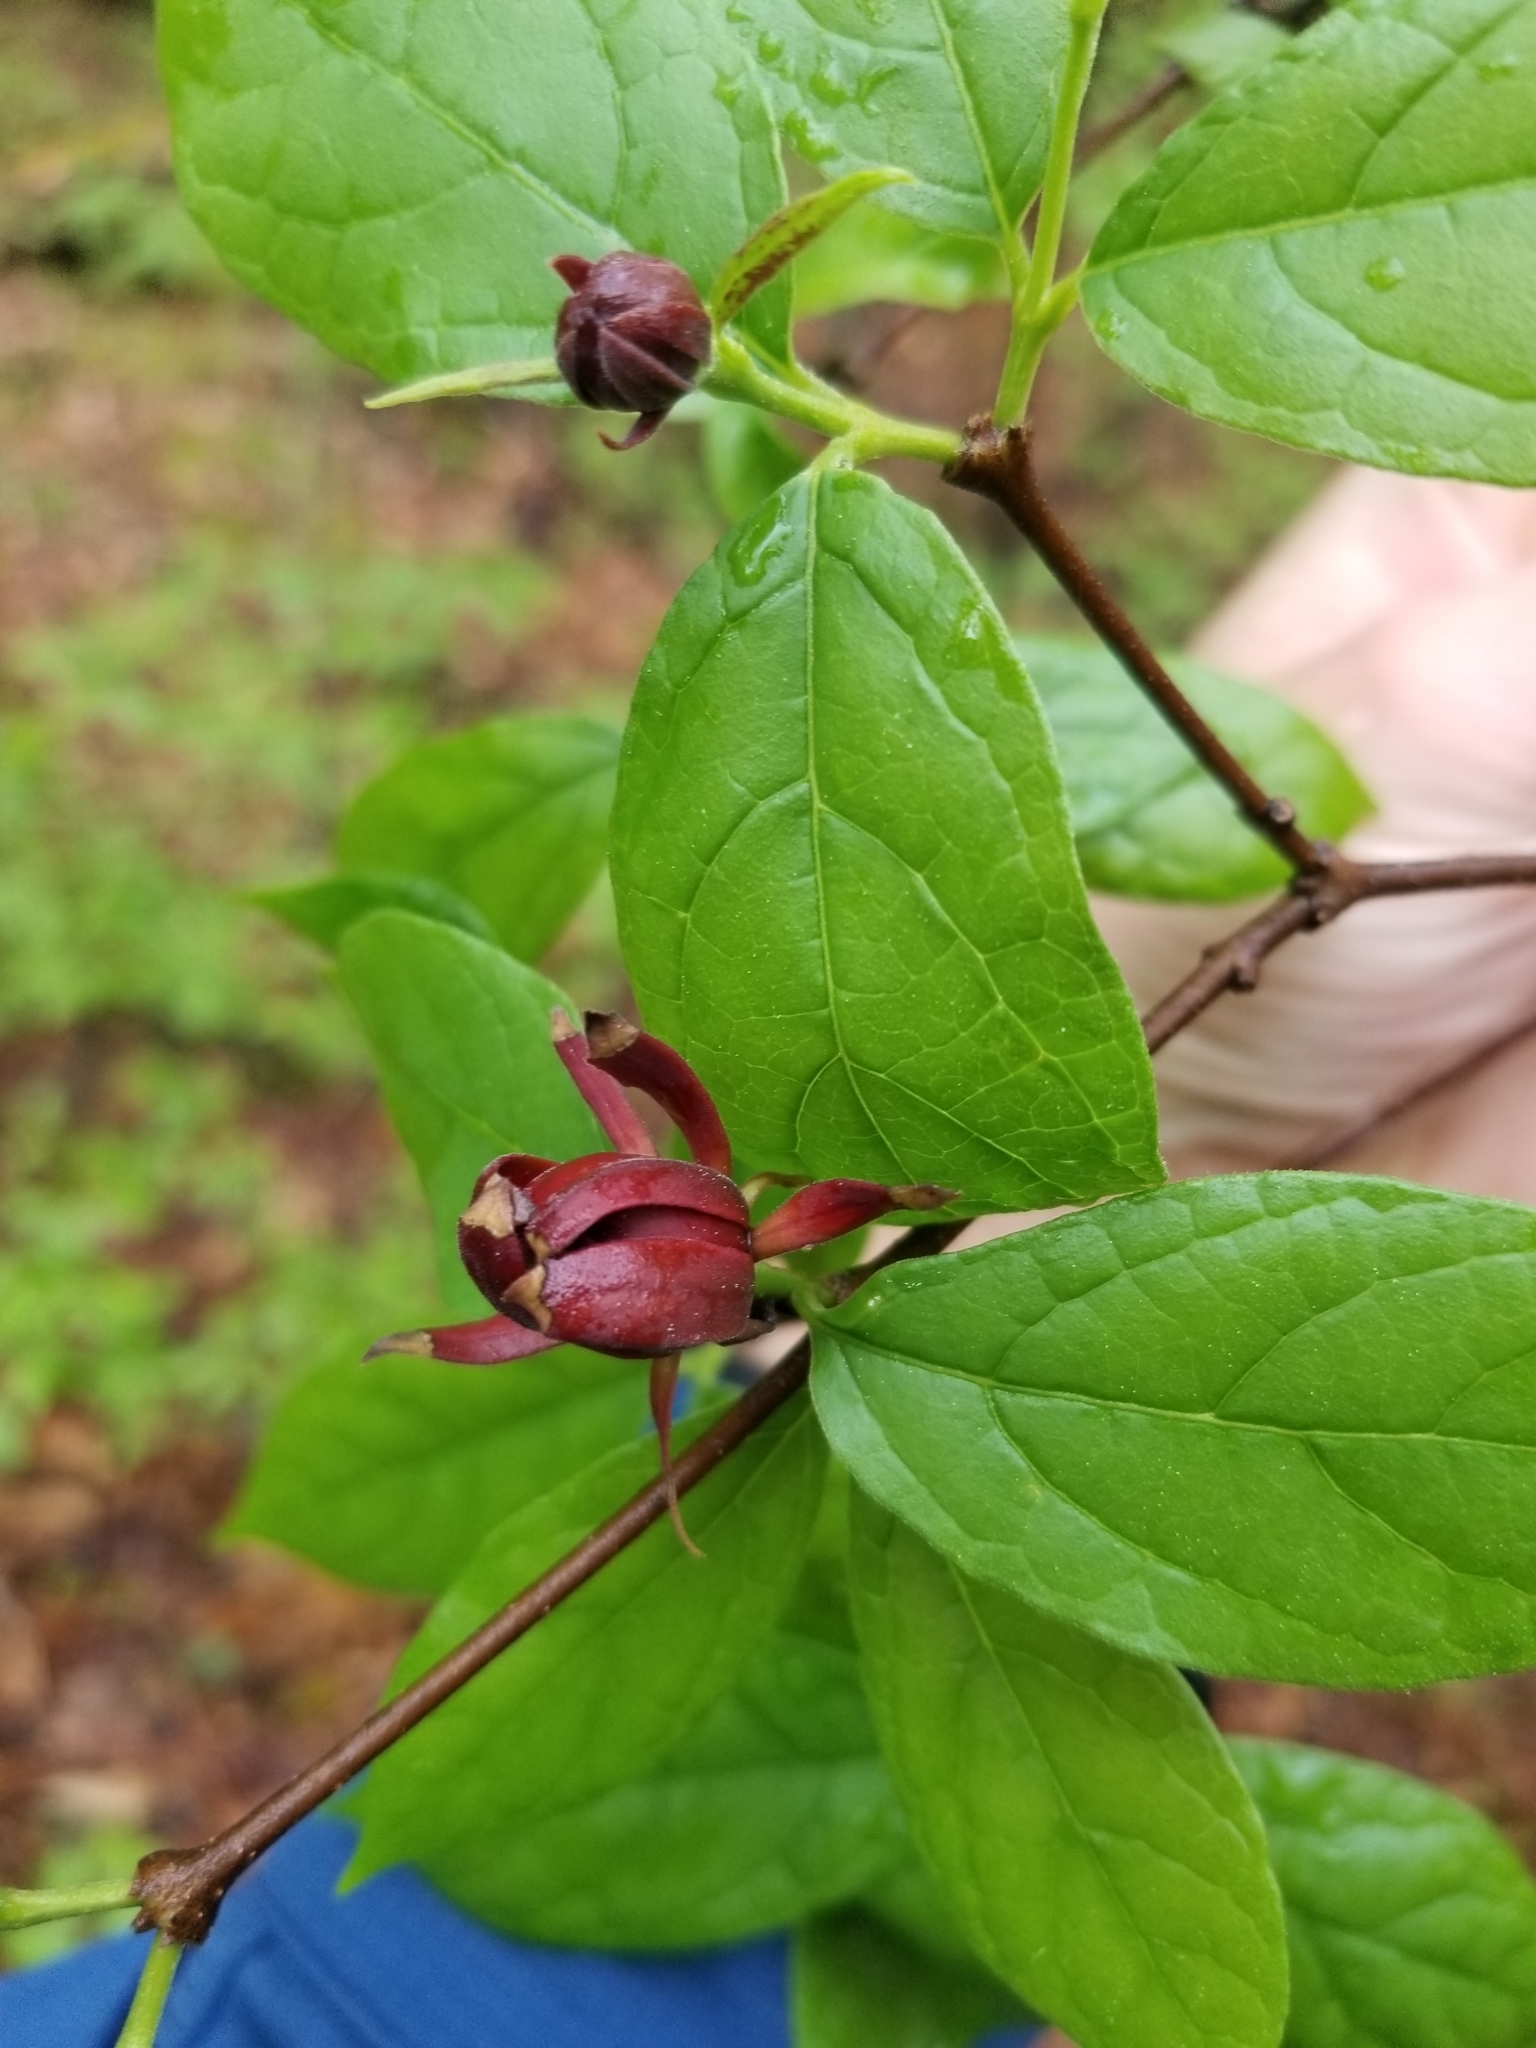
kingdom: Plantae
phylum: Tracheophyta
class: Magnoliopsida
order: Laurales
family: Calycanthaceae
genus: Calycanthus
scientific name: Calycanthus floridus
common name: Carolina-allspice
